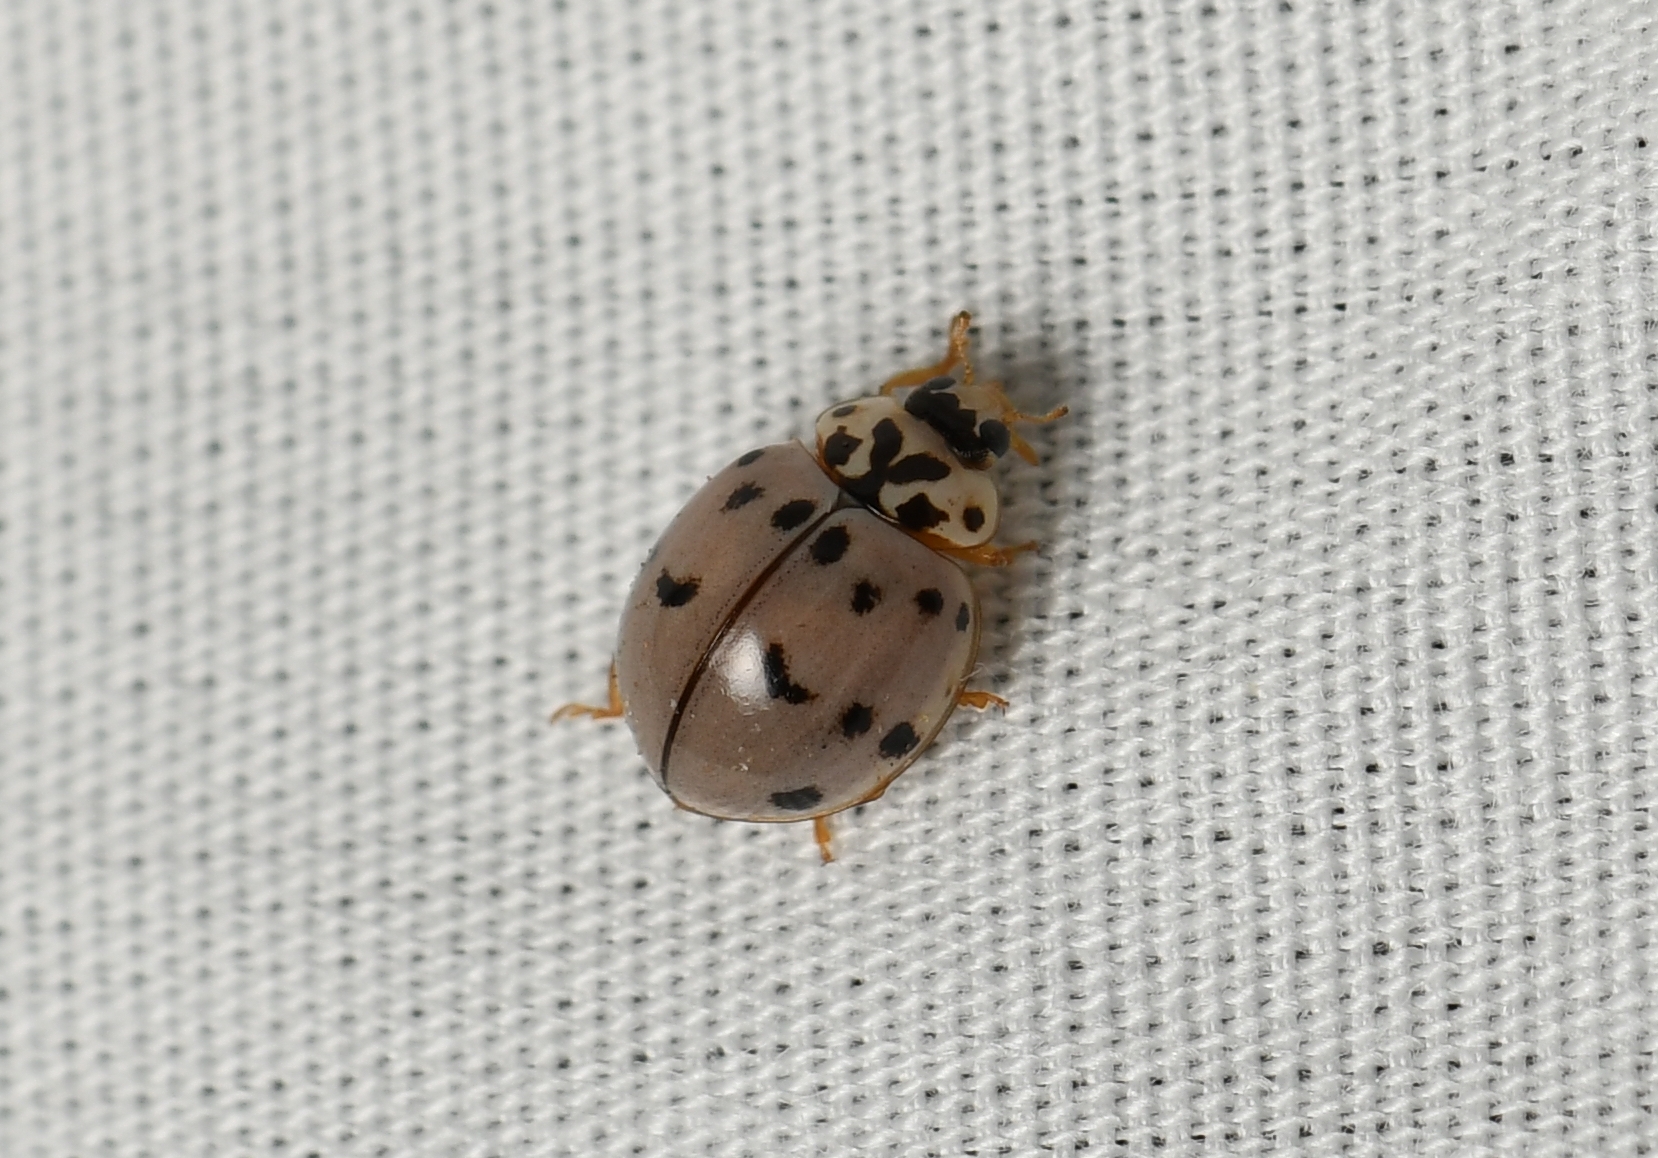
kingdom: Animalia
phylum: Arthropoda
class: Insecta
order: Coleoptera
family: Coccinellidae
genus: Olla
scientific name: Olla v-nigrum
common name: Ashy gray lady beetle
